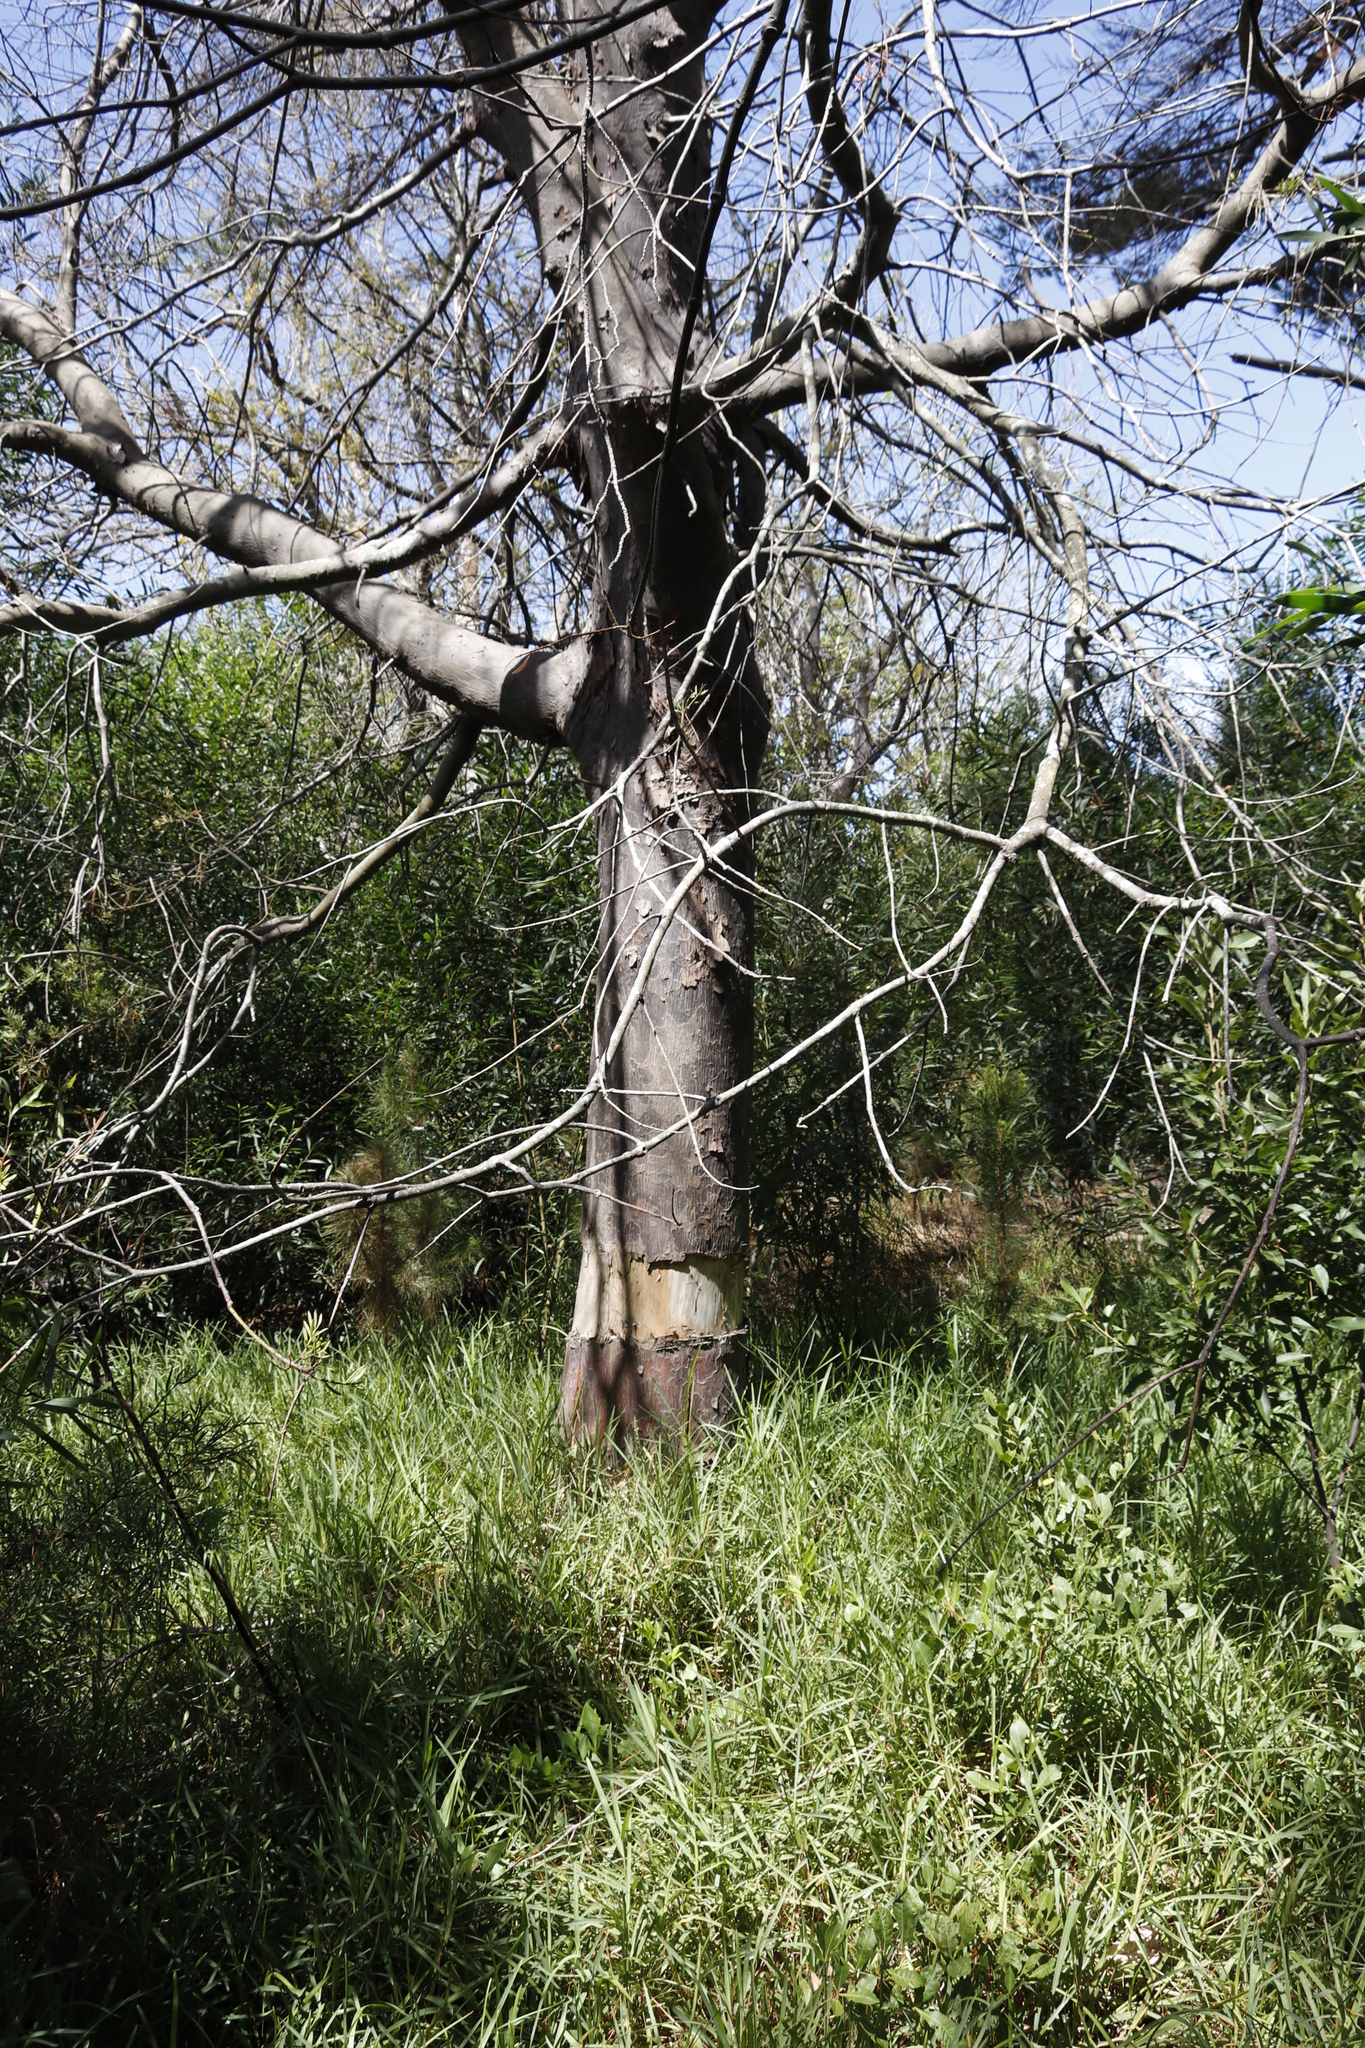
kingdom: Plantae
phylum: Tracheophyta
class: Pinopsida
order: Pinales
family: Podocarpaceae
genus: Afrocarpus
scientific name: Afrocarpus falcatus
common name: Bastard yellowwood
